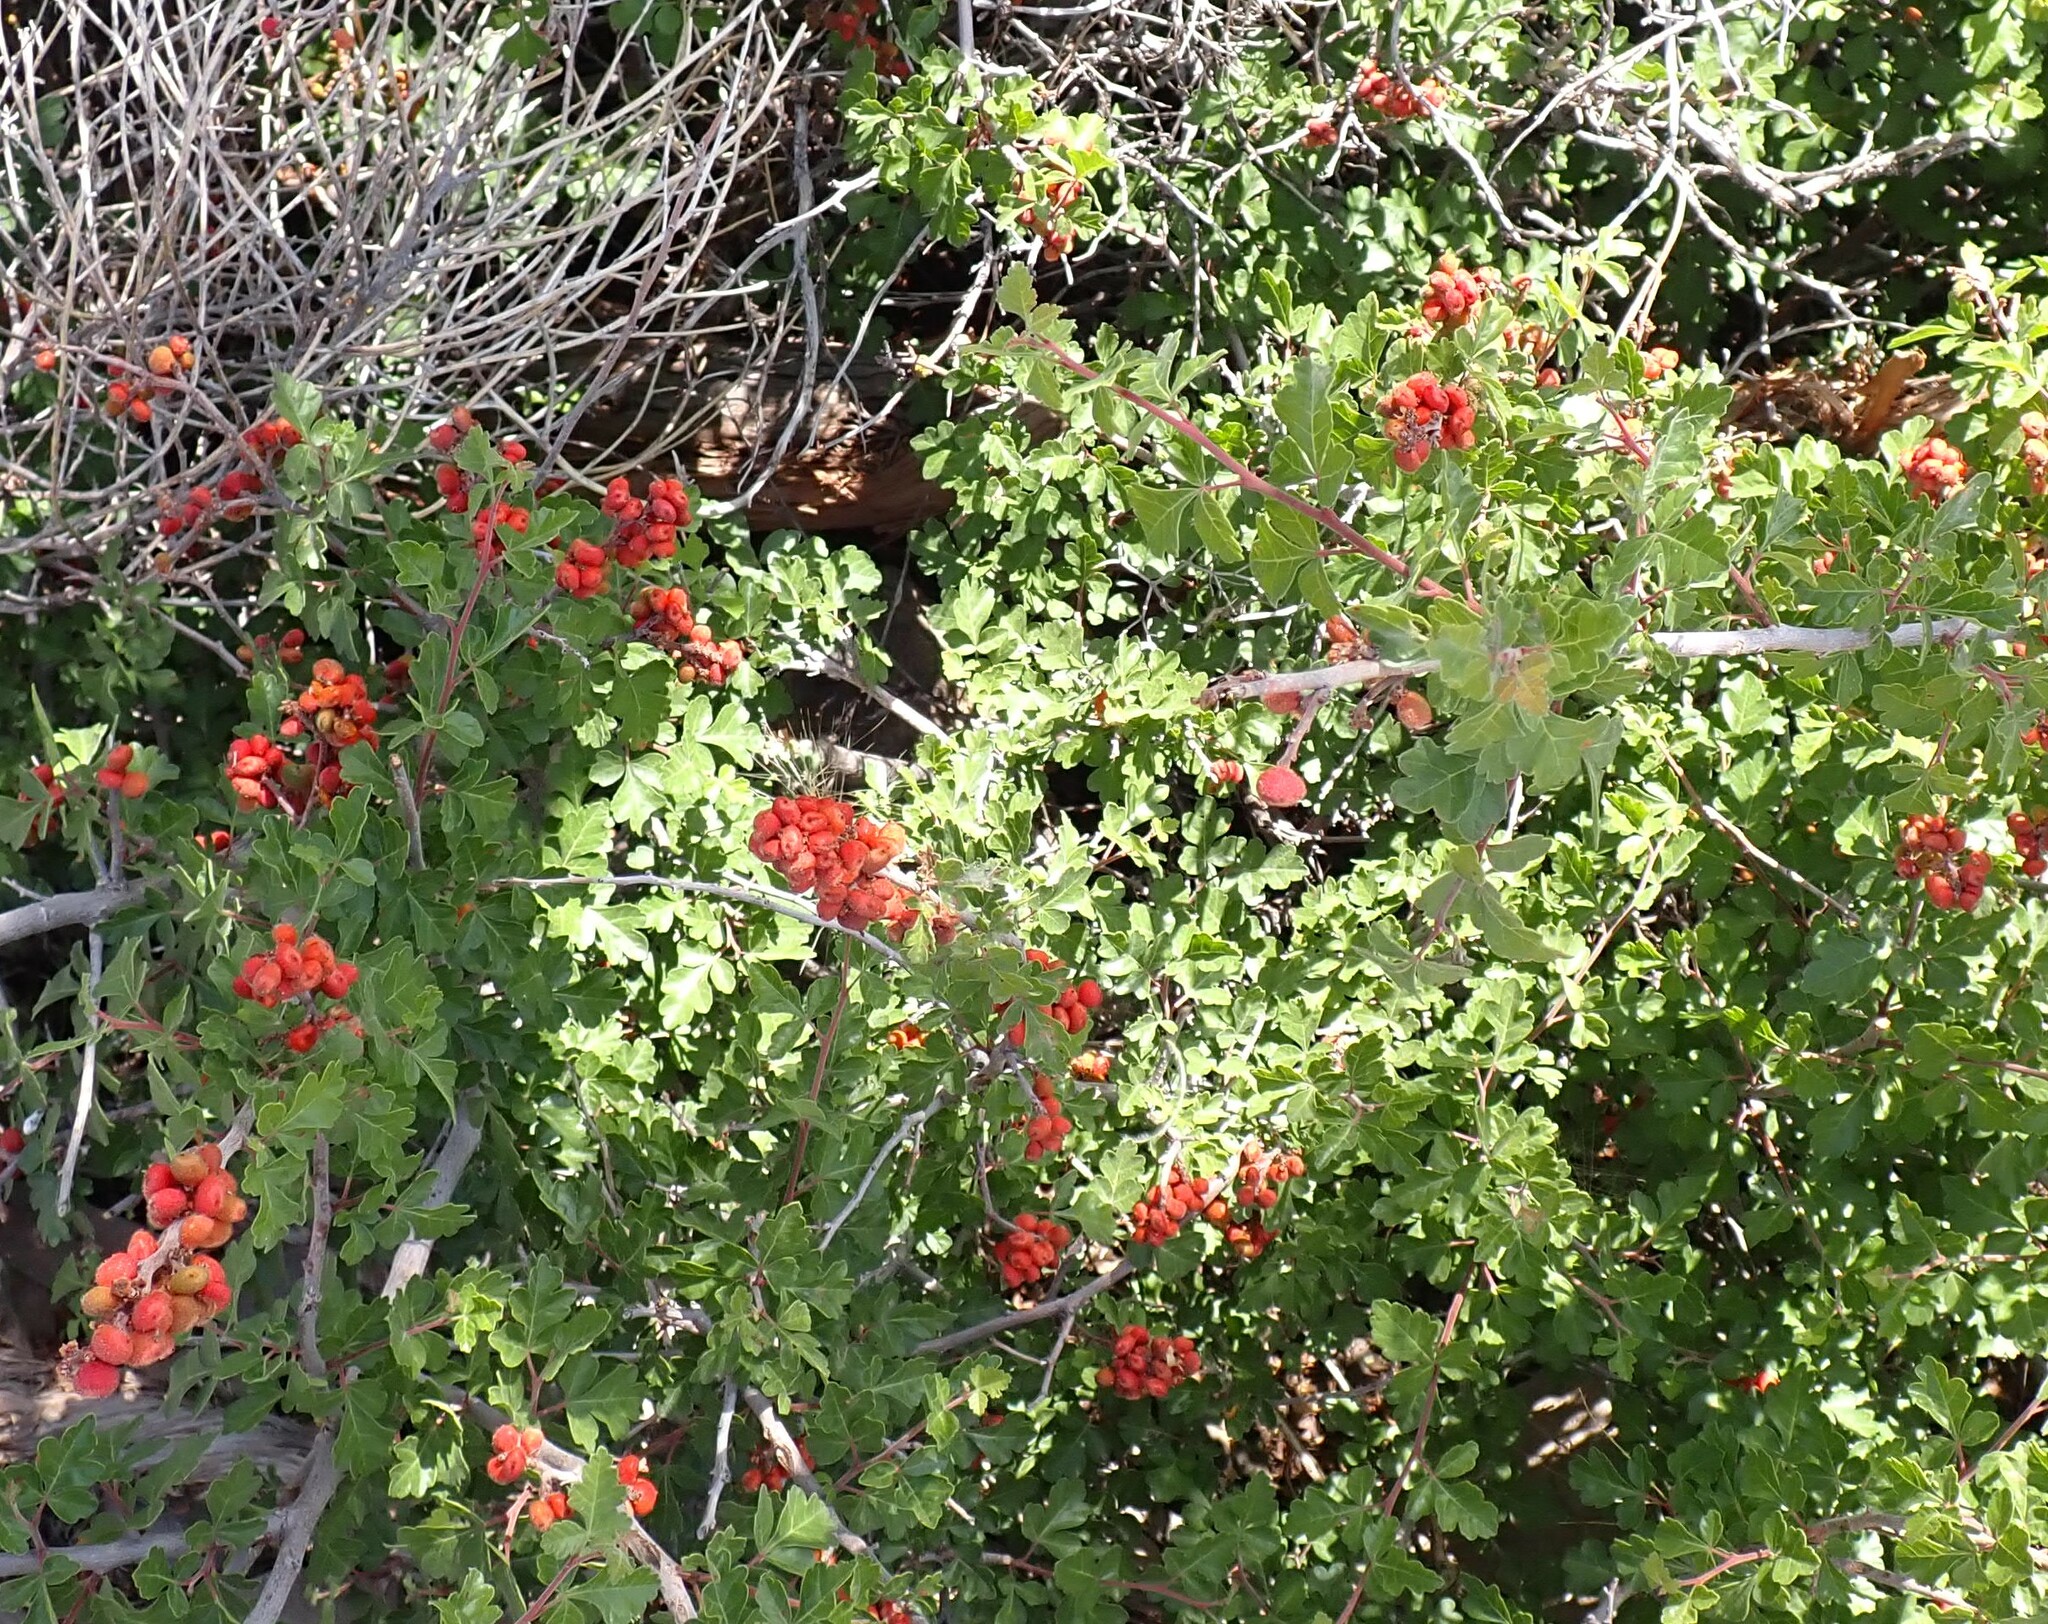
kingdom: Plantae
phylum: Tracheophyta
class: Magnoliopsida
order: Sapindales
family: Anacardiaceae
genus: Rhus
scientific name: Rhus trilobata
